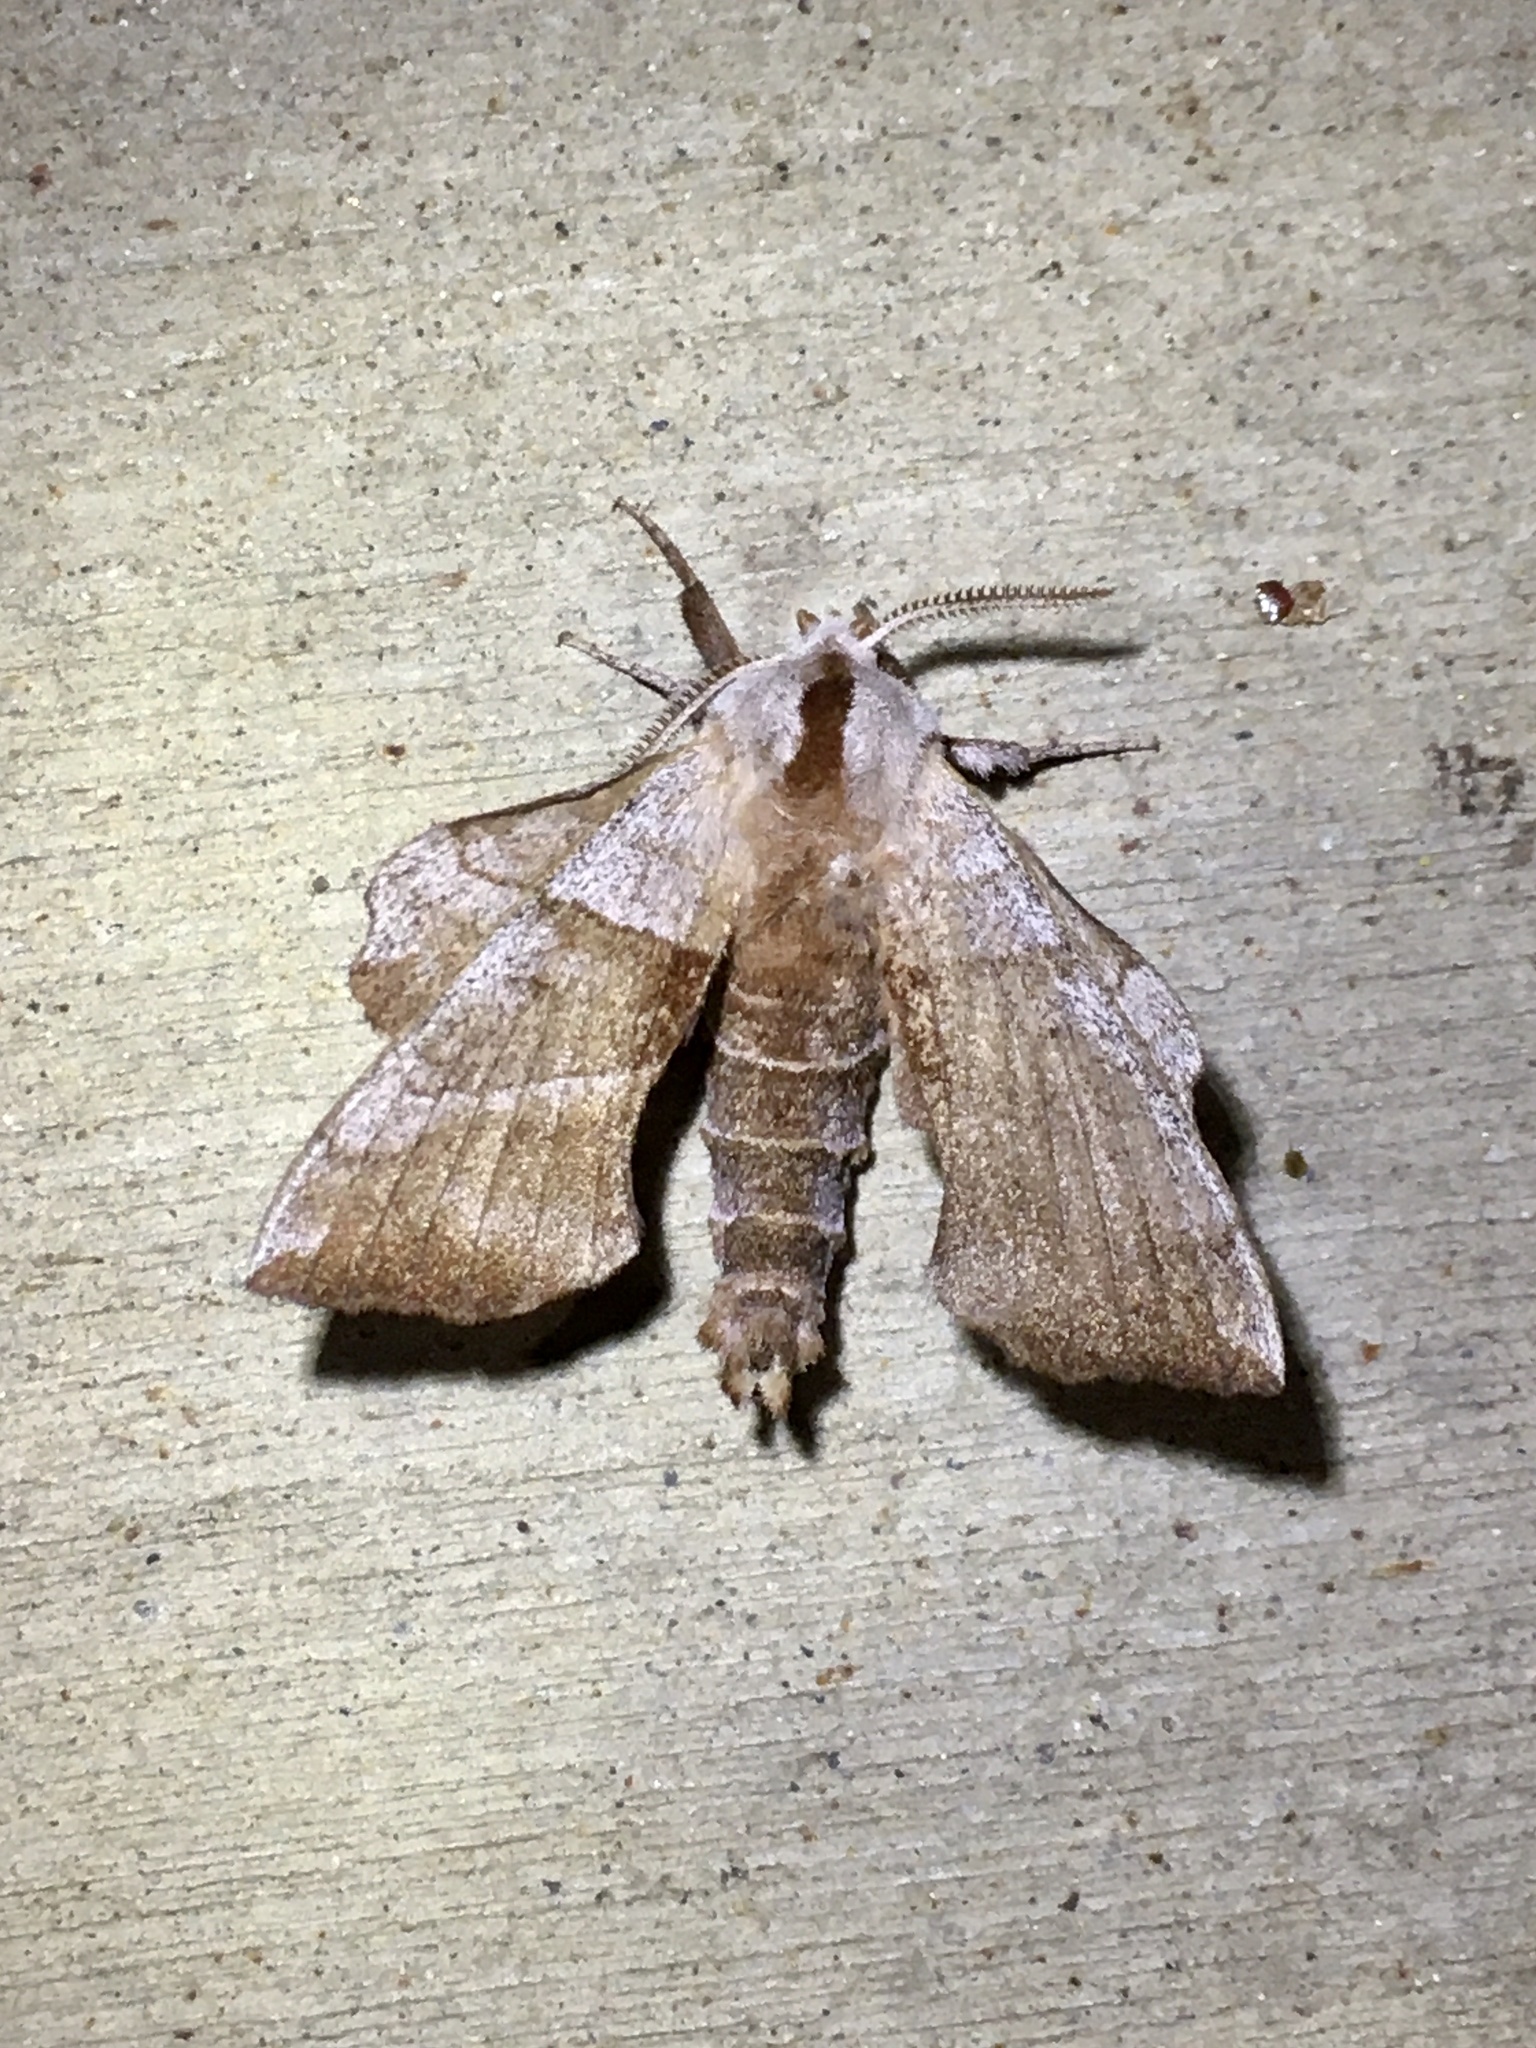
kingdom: Animalia
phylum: Arthropoda
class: Insecta
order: Lepidoptera
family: Sphingidae
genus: Amorpha
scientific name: Amorpha juglandis
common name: Walnut sphinx
